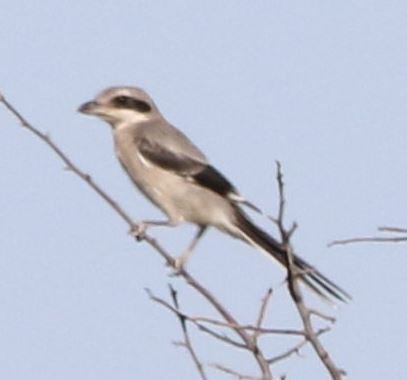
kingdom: Animalia
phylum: Chordata
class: Aves
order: Passeriformes
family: Laniidae
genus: Lanius
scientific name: Lanius meridionalis
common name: Iberian grey shrike
